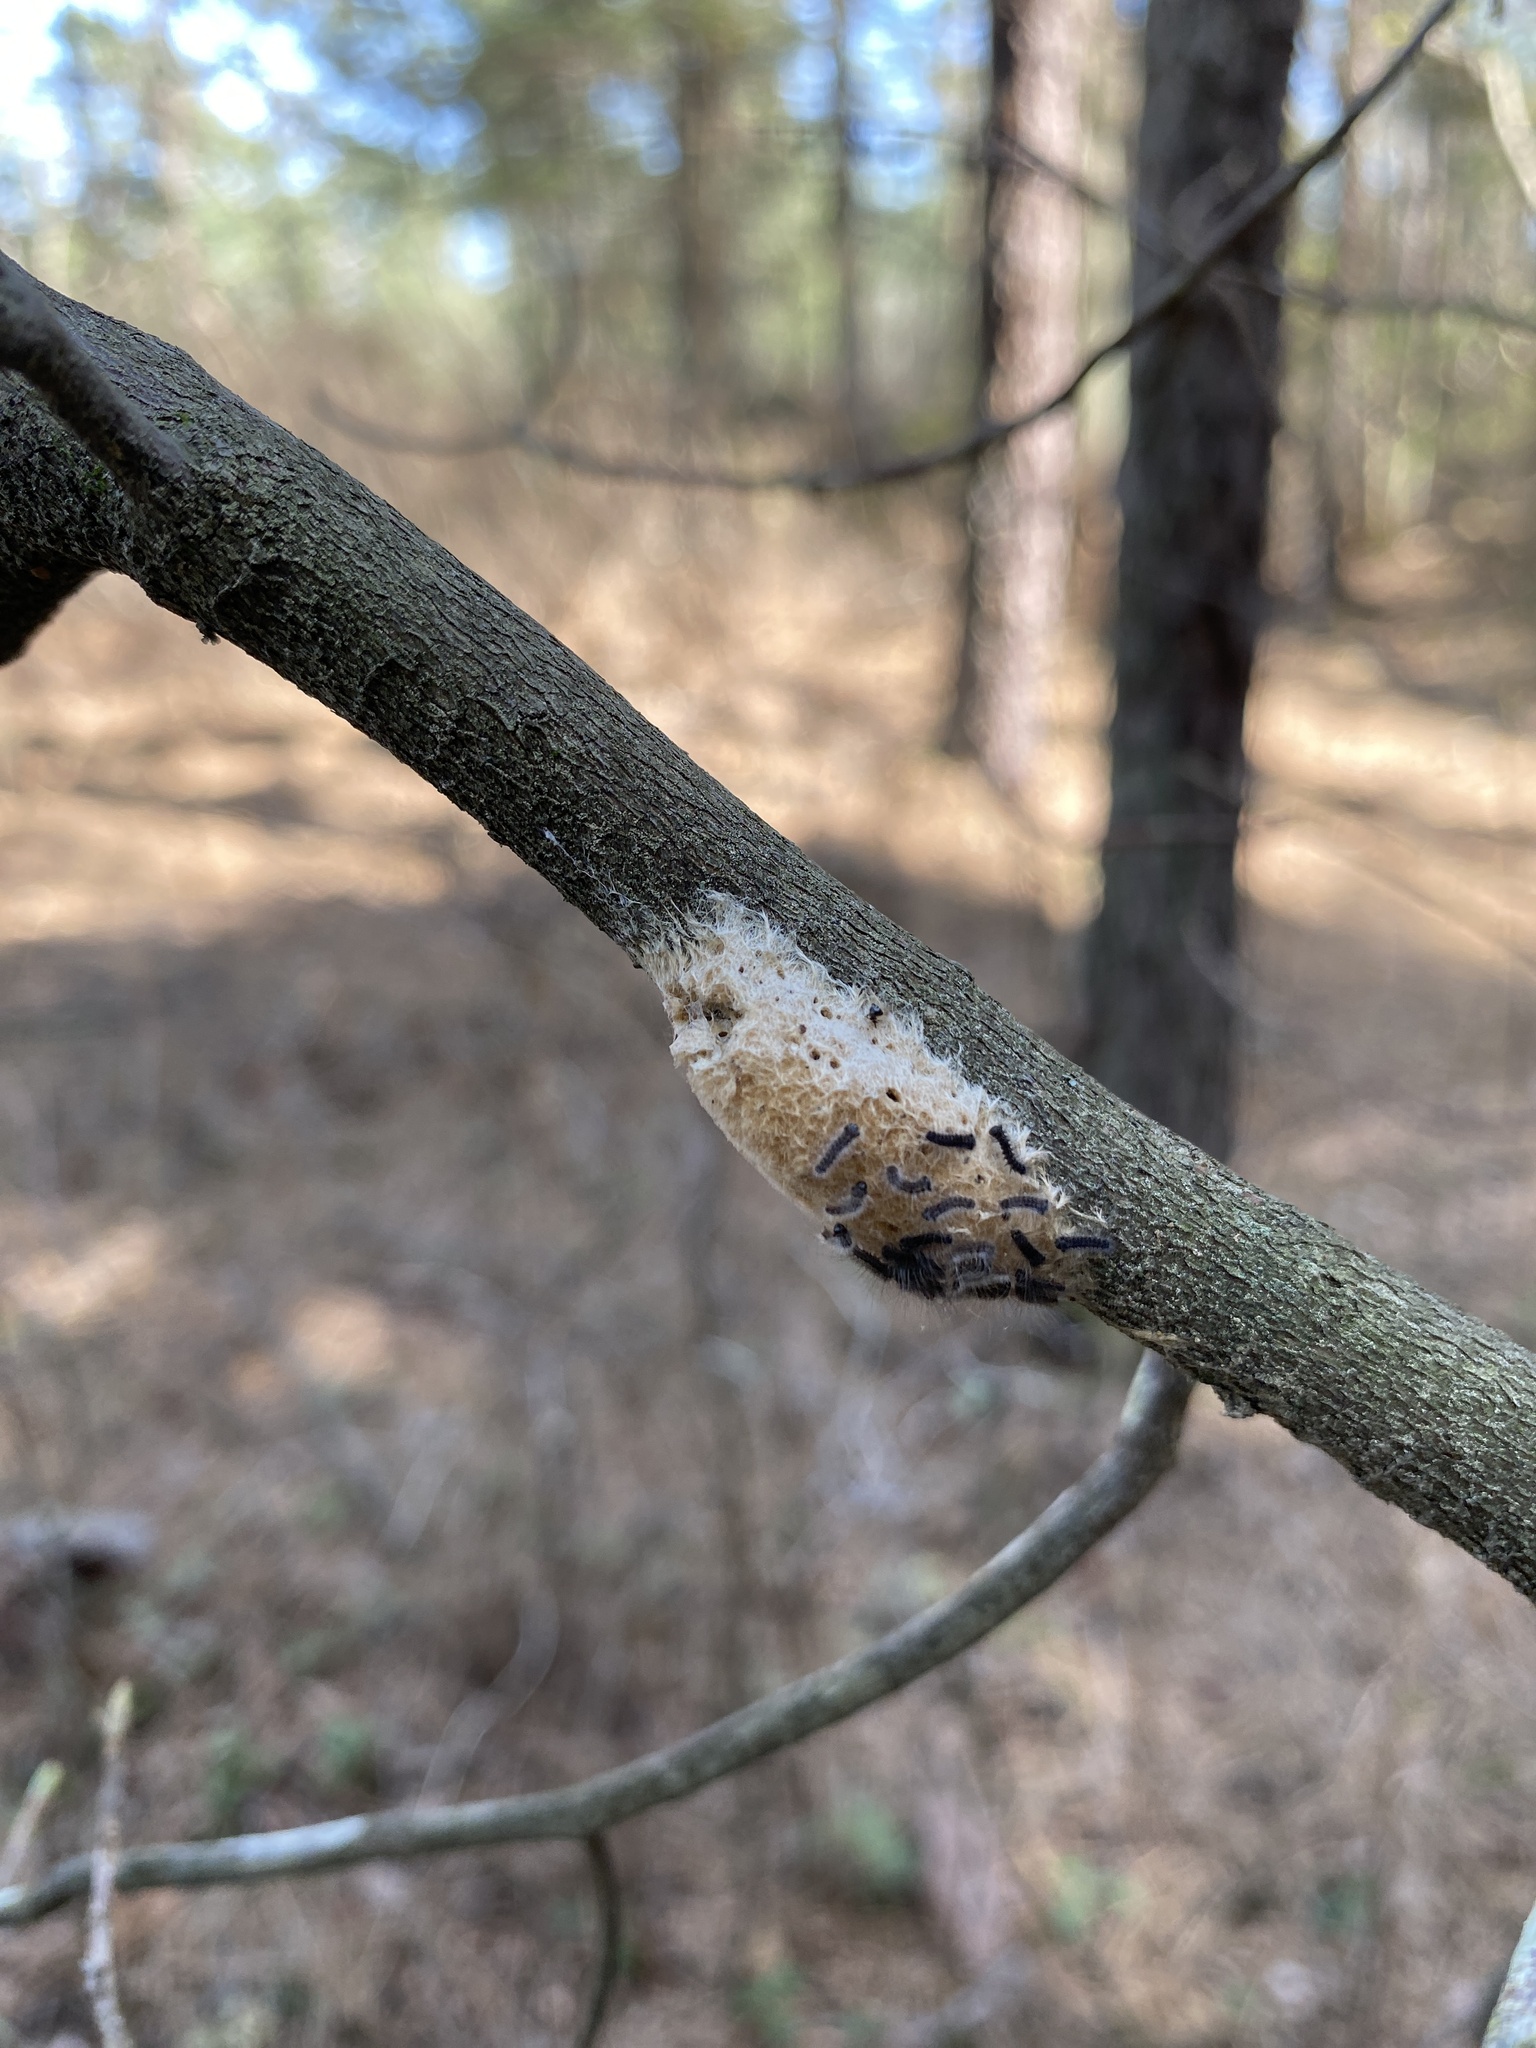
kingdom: Animalia
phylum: Arthropoda
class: Insecta
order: Lepidoptera
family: Erebidae
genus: Lymantria
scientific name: Lymantria dispar
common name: Gypsy moth
